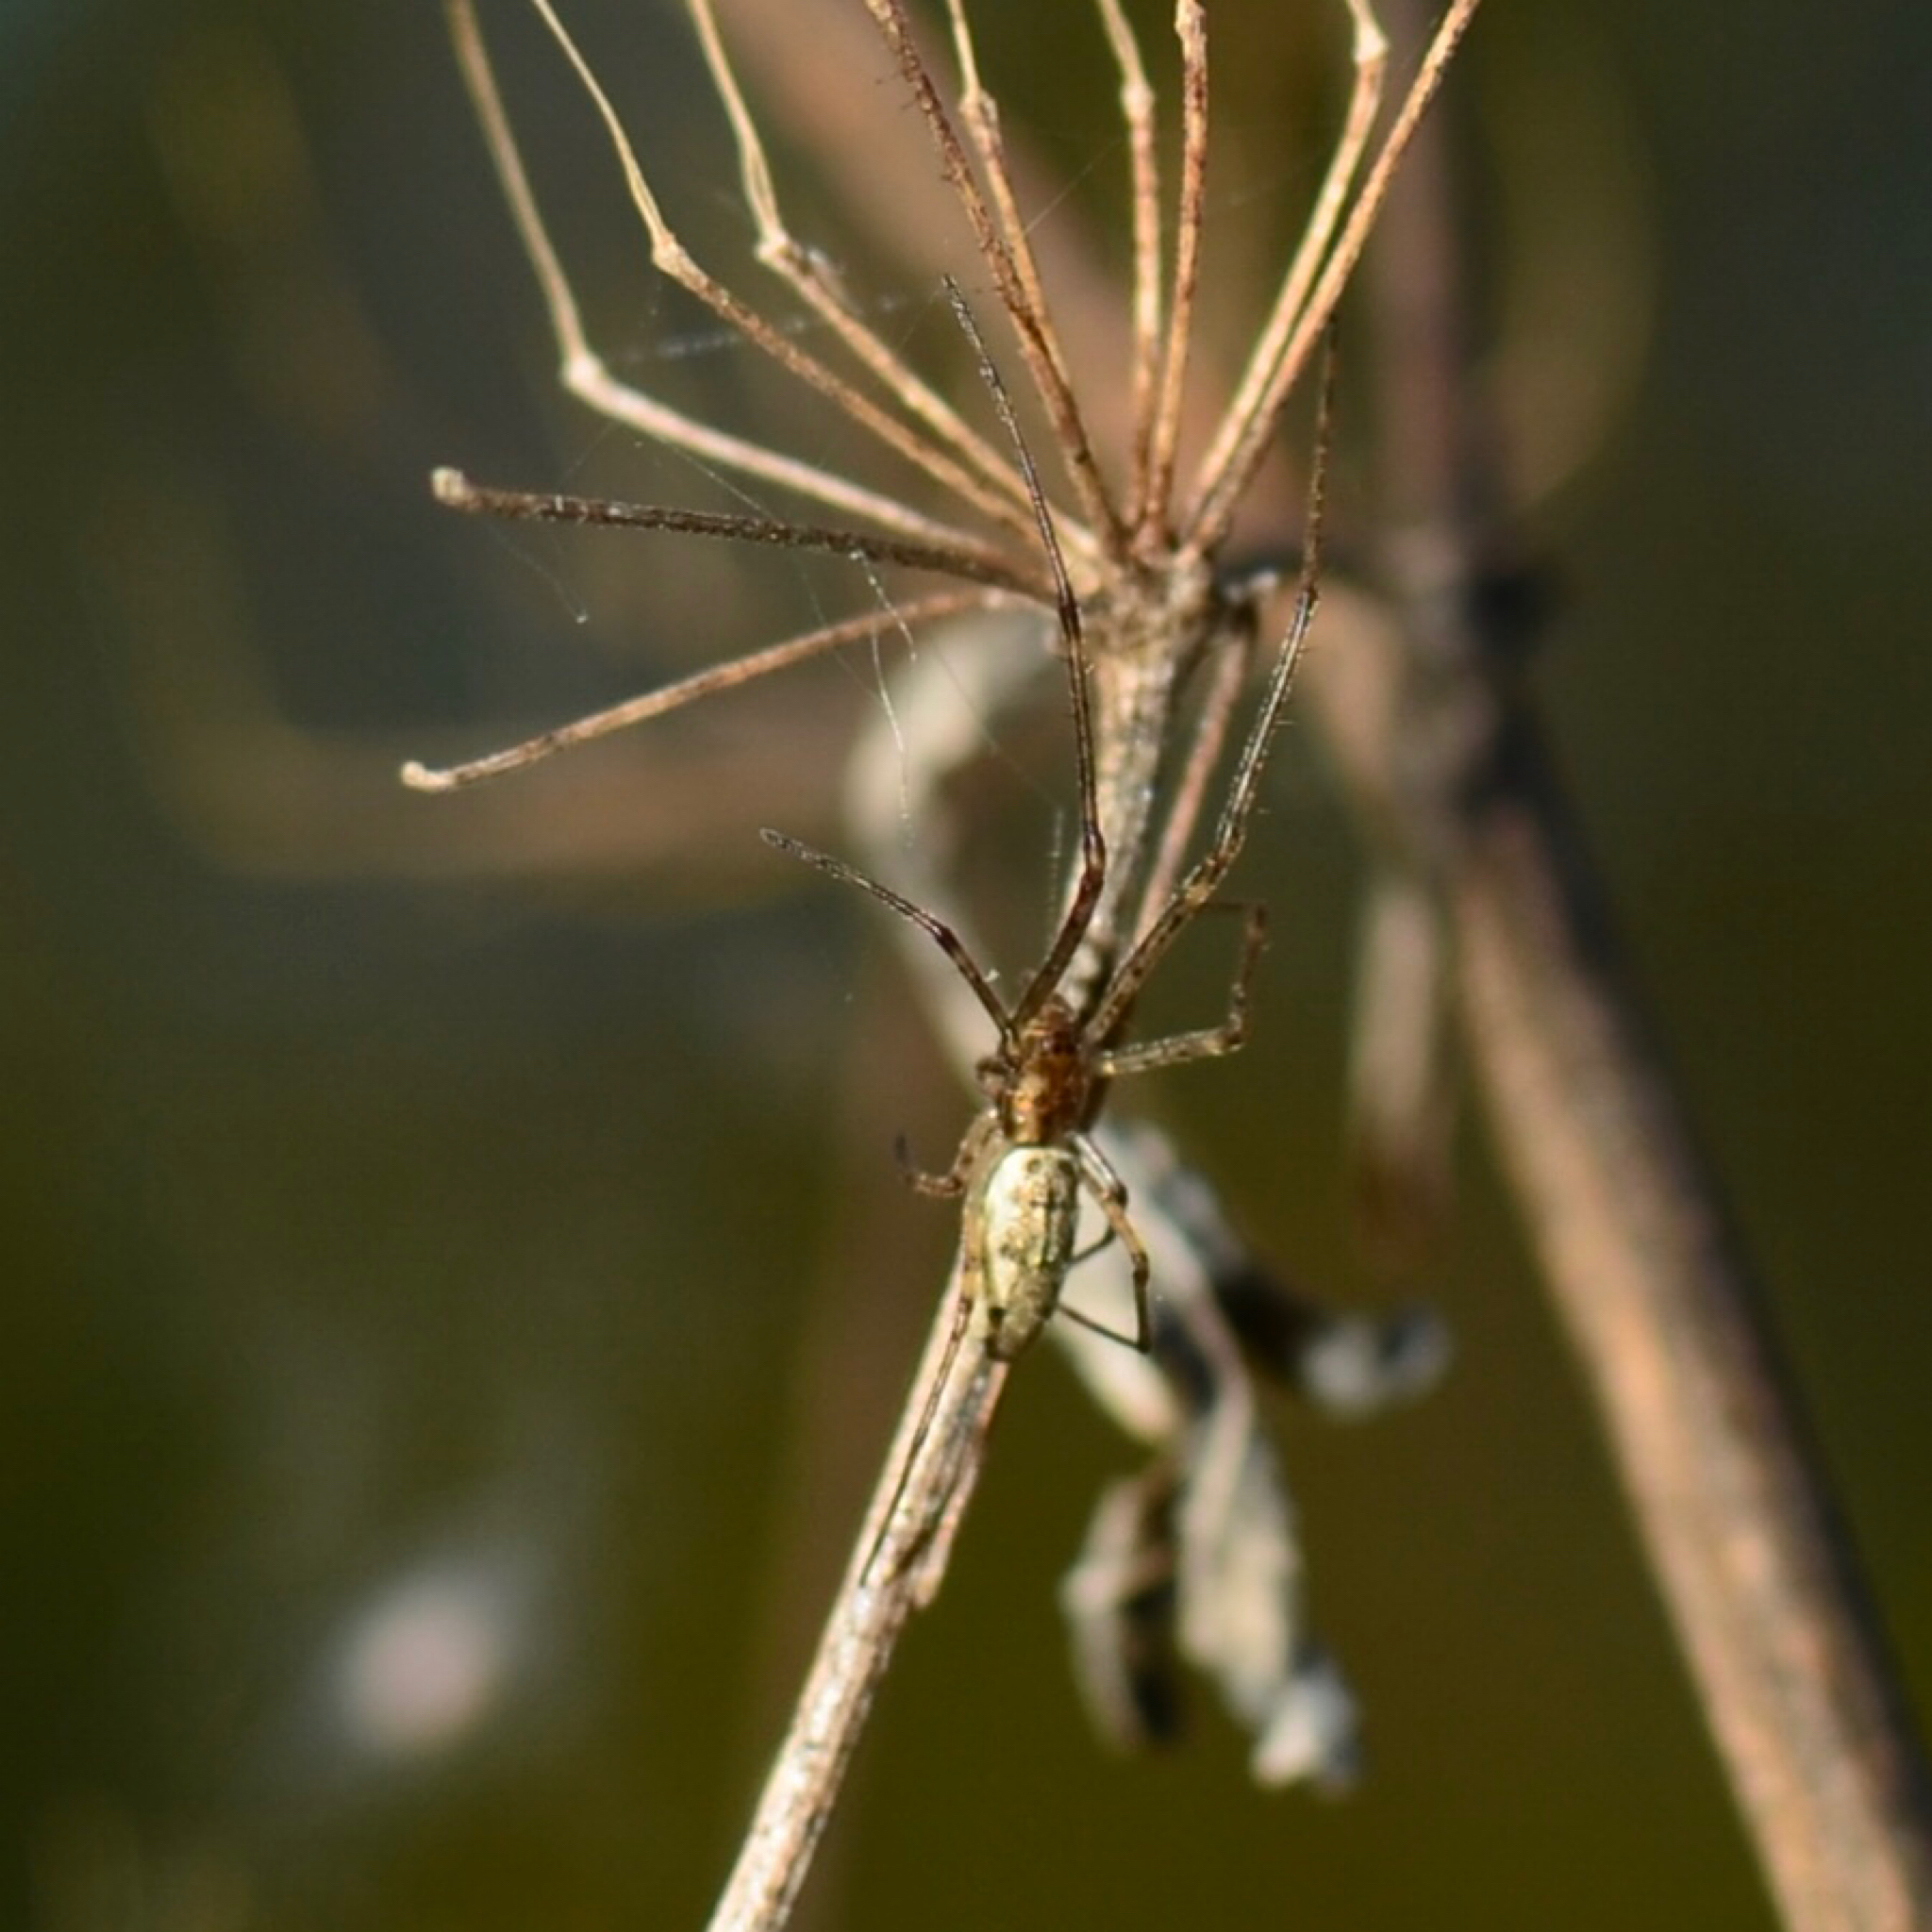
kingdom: Animalia
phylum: Arthropoda
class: Arachnida
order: Araneae
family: Tetragnathidae
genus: Tetragnatha
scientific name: Tetragnatha
